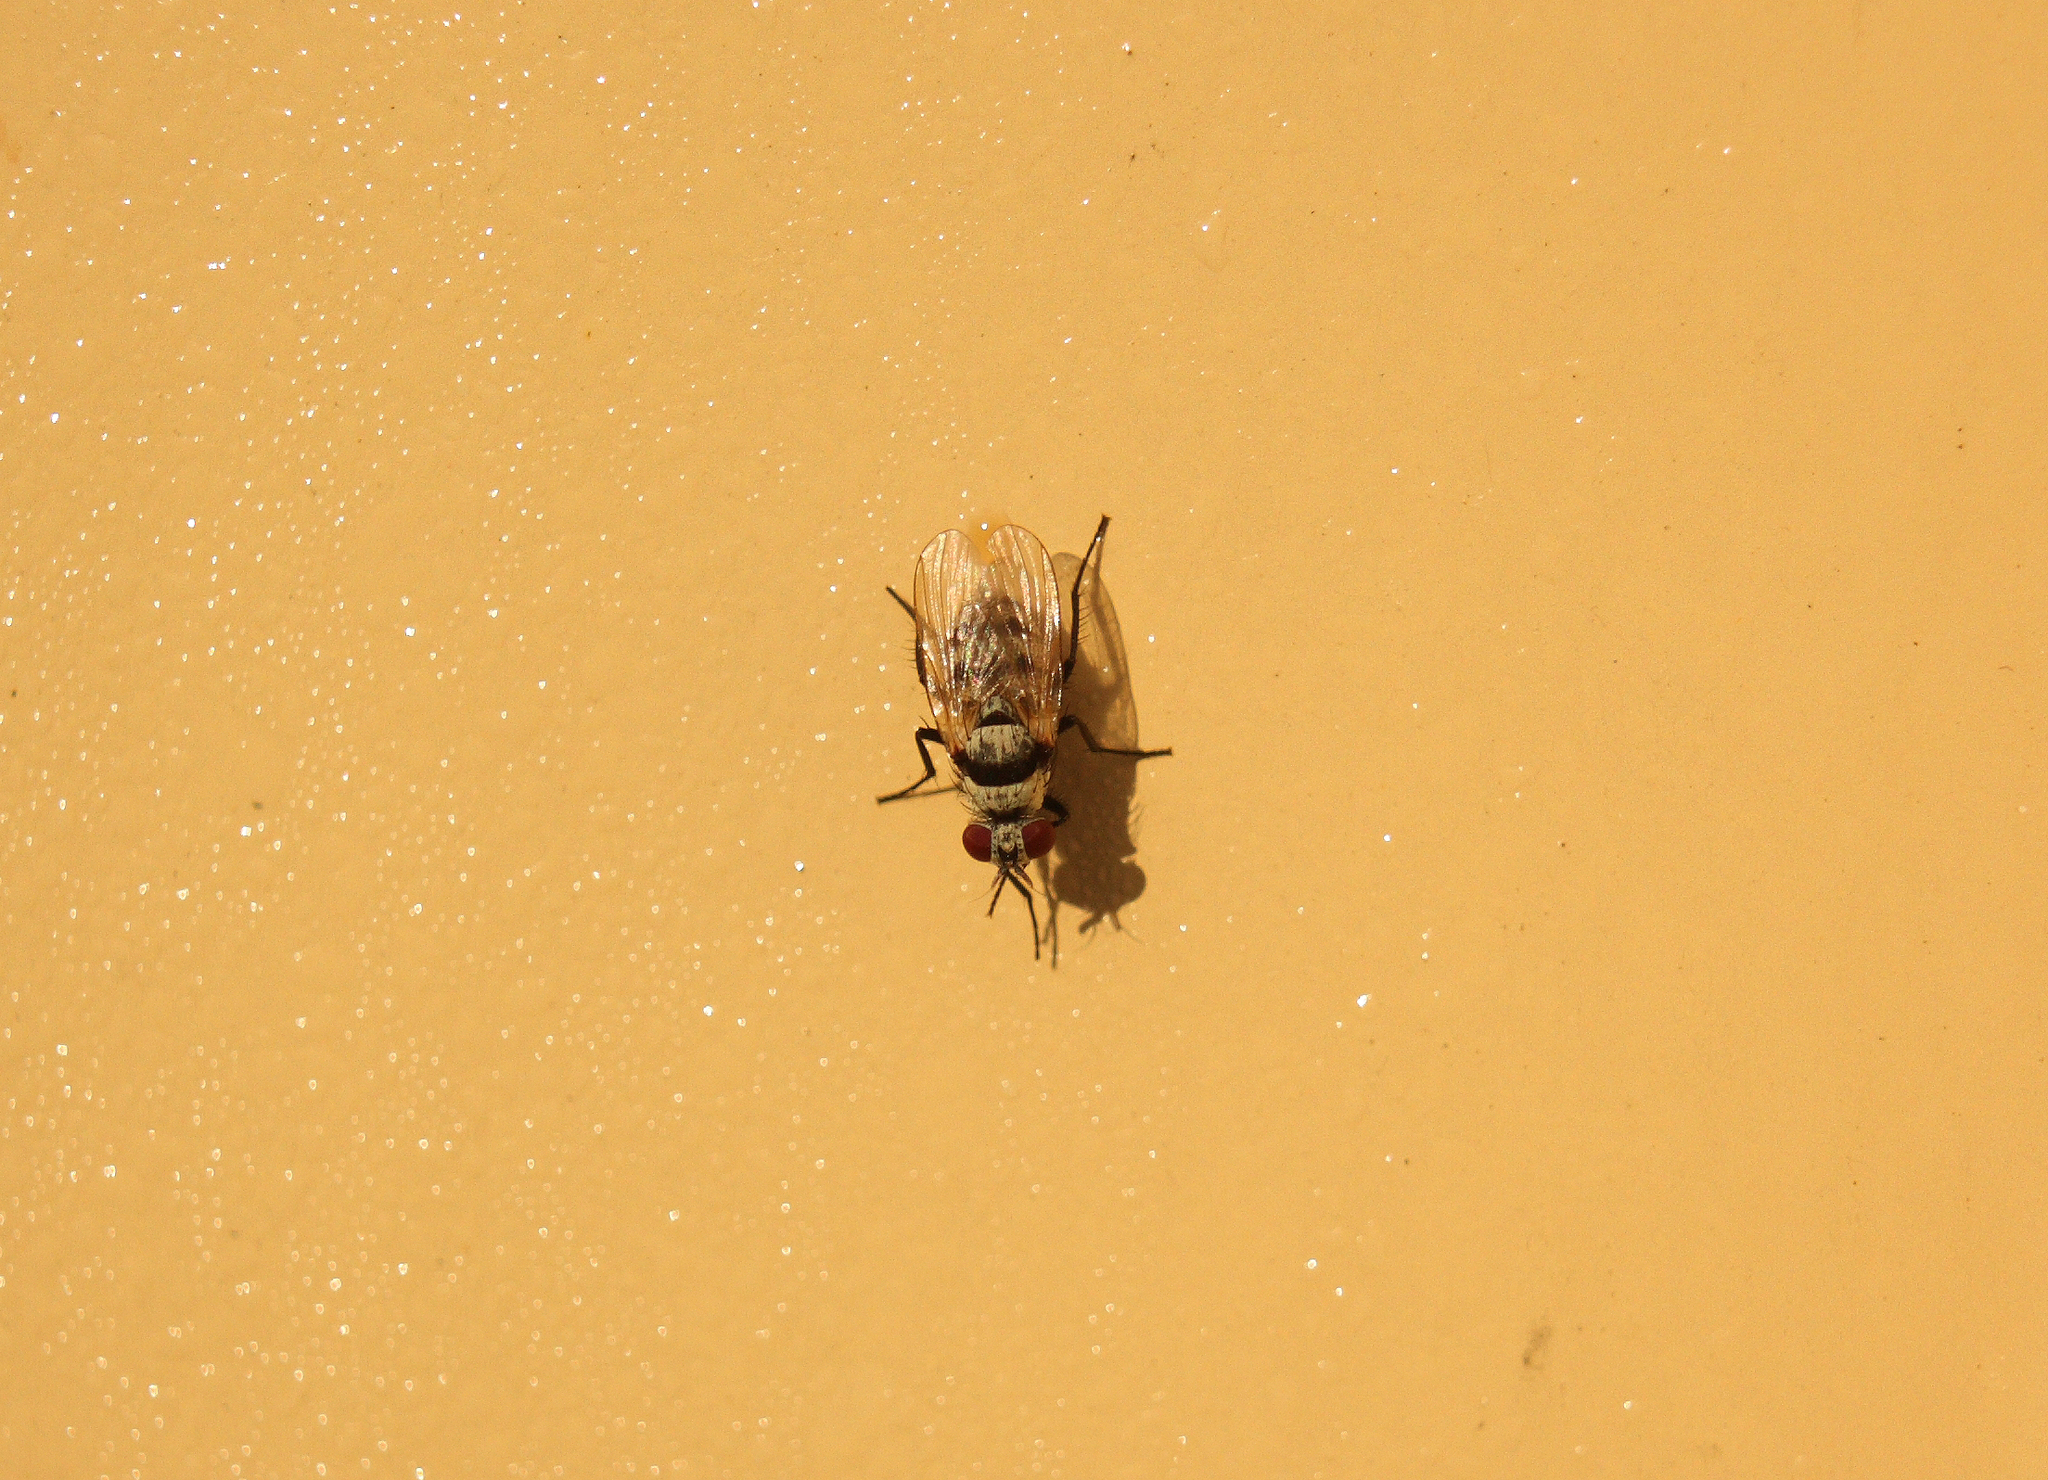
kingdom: Animalia
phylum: Arthropoda
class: Insecta
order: Diptera
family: Anthomyiidae
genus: Anthomyia
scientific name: Anthomyia silvestris
